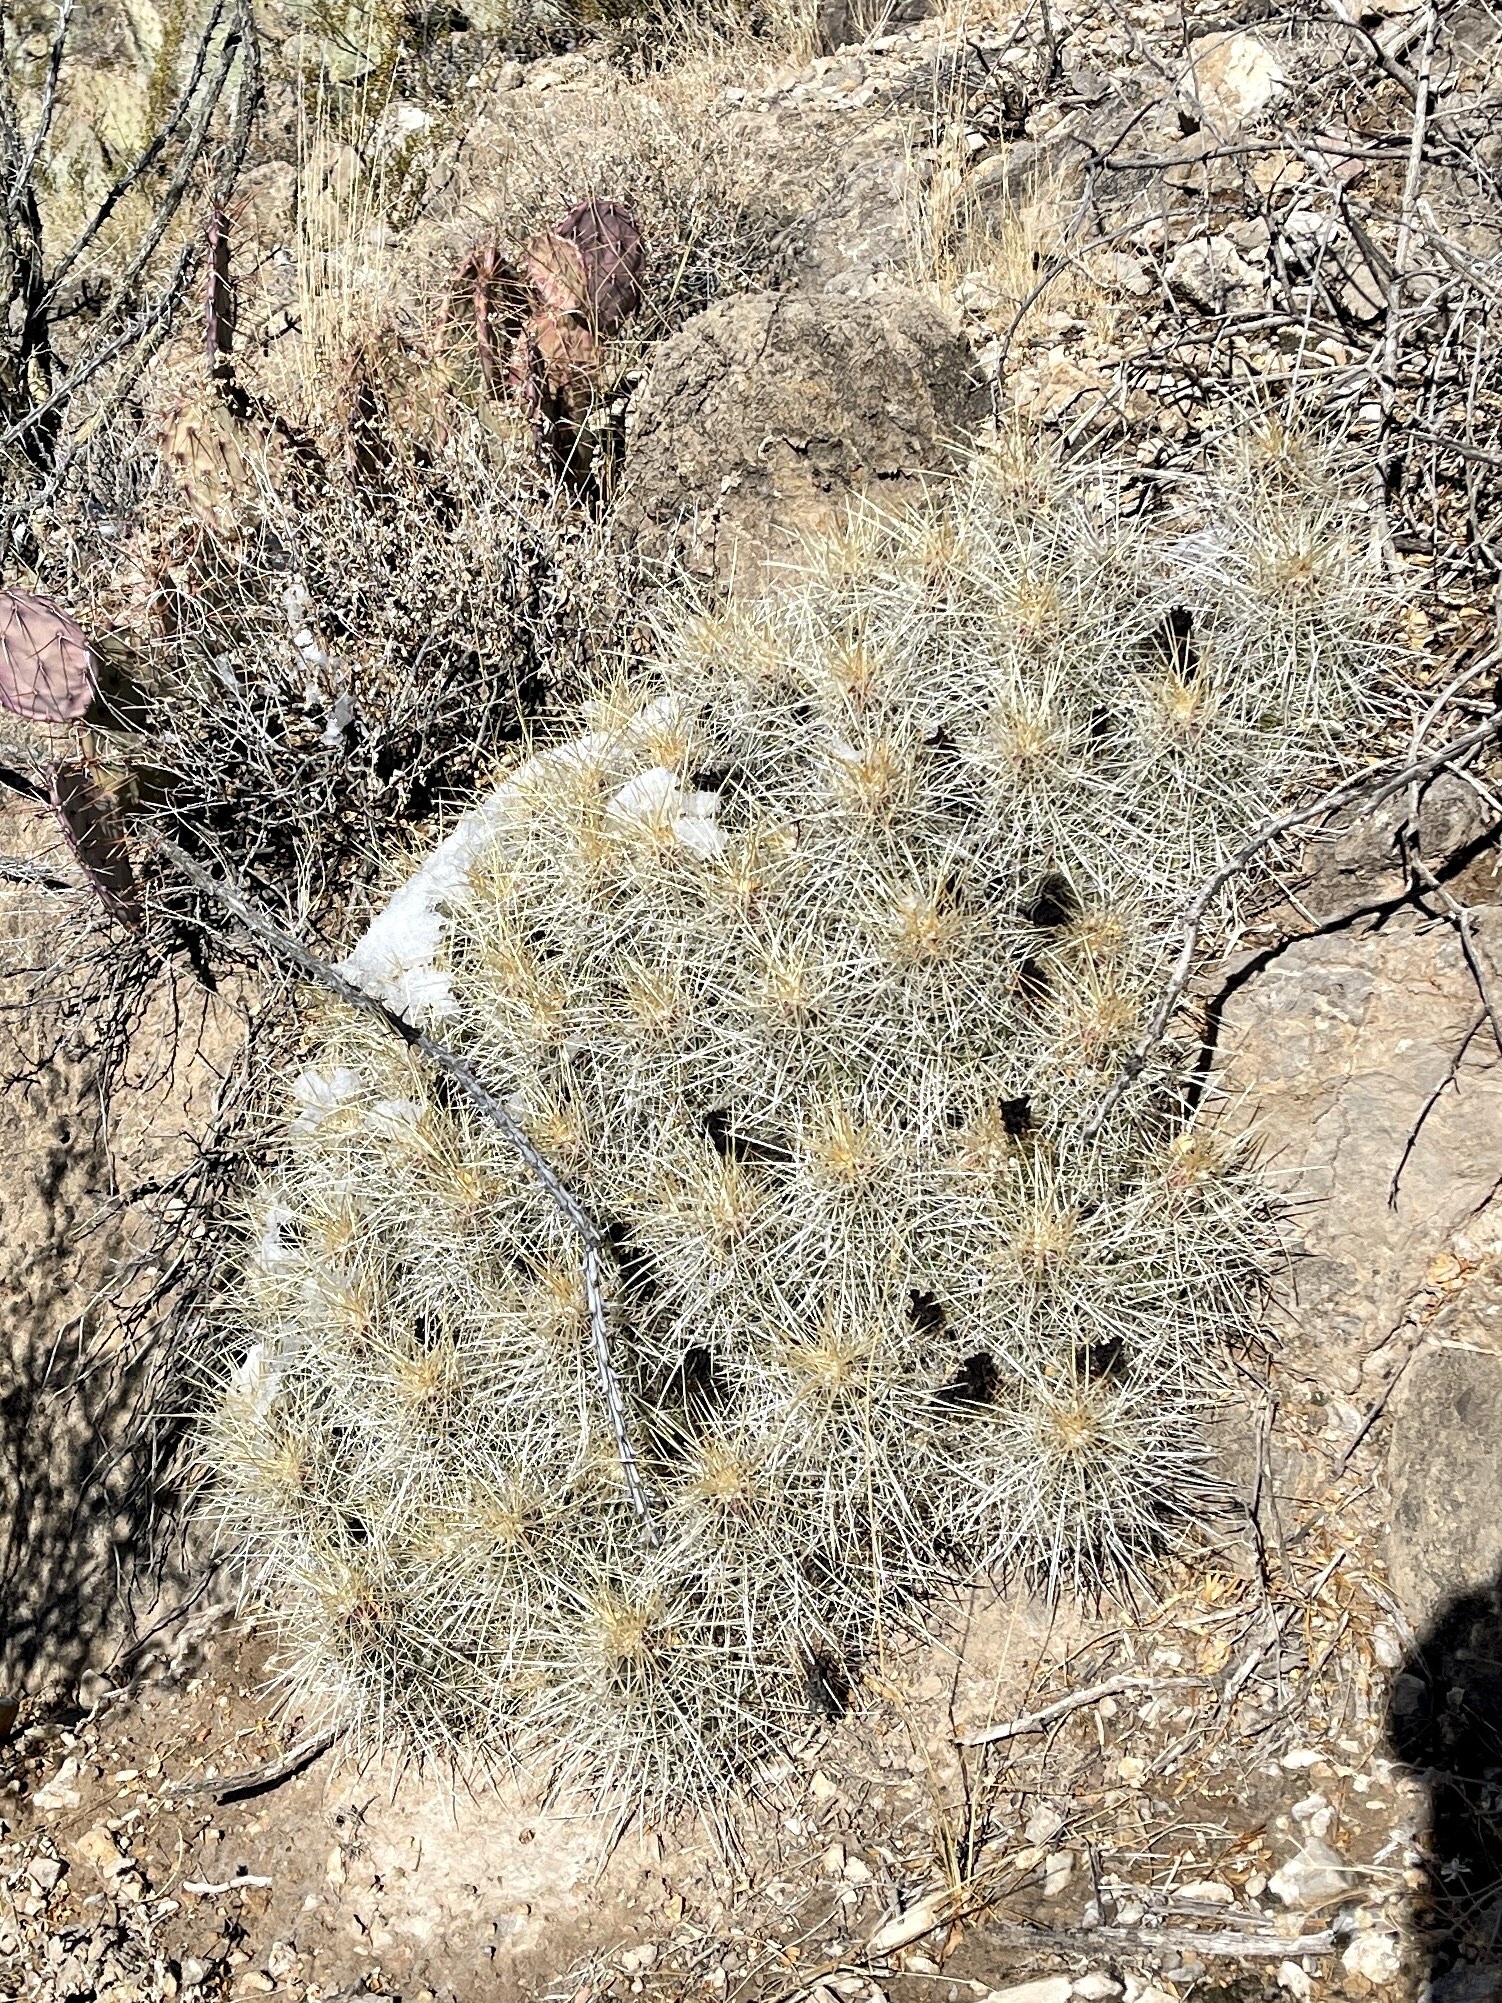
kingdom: Plantae
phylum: Tracheophyta
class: Magnoliopsida
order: Caryophyllales
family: Cactaceae
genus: Echinocereus
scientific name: Echinocereus stramineus
